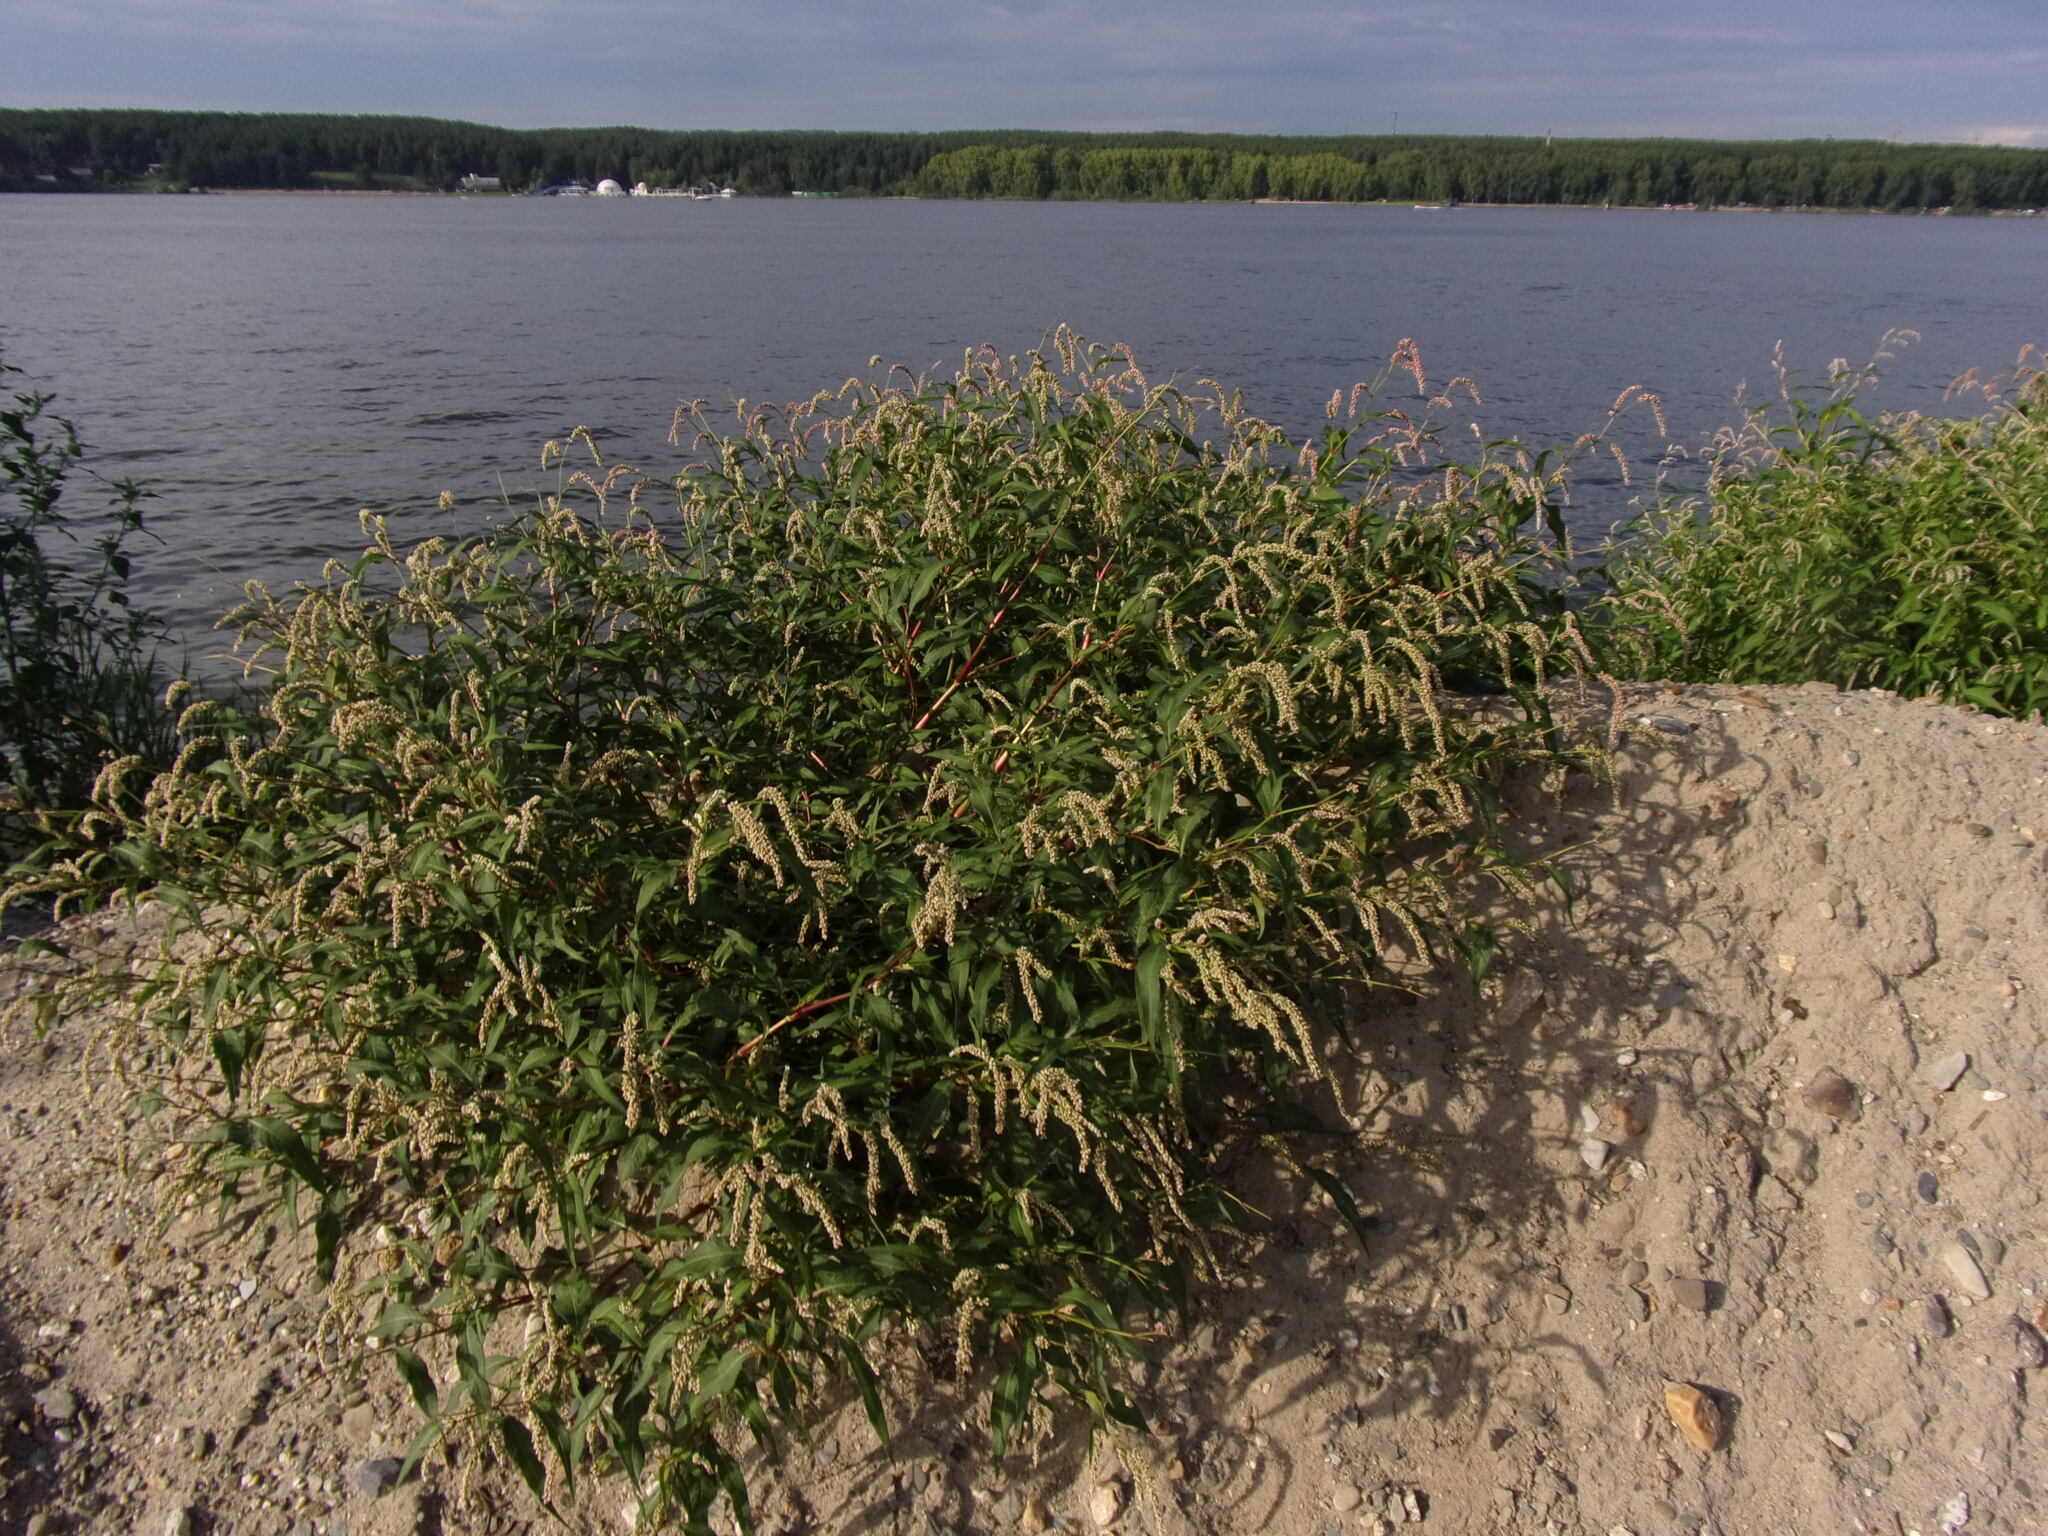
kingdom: Plantae
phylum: Tracheophyta
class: Magnoliopsida
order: Caryophyllales
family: Polygonaceae
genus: Persicaria
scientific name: Persicaria lapathifolia
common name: Curlytop knotweed
